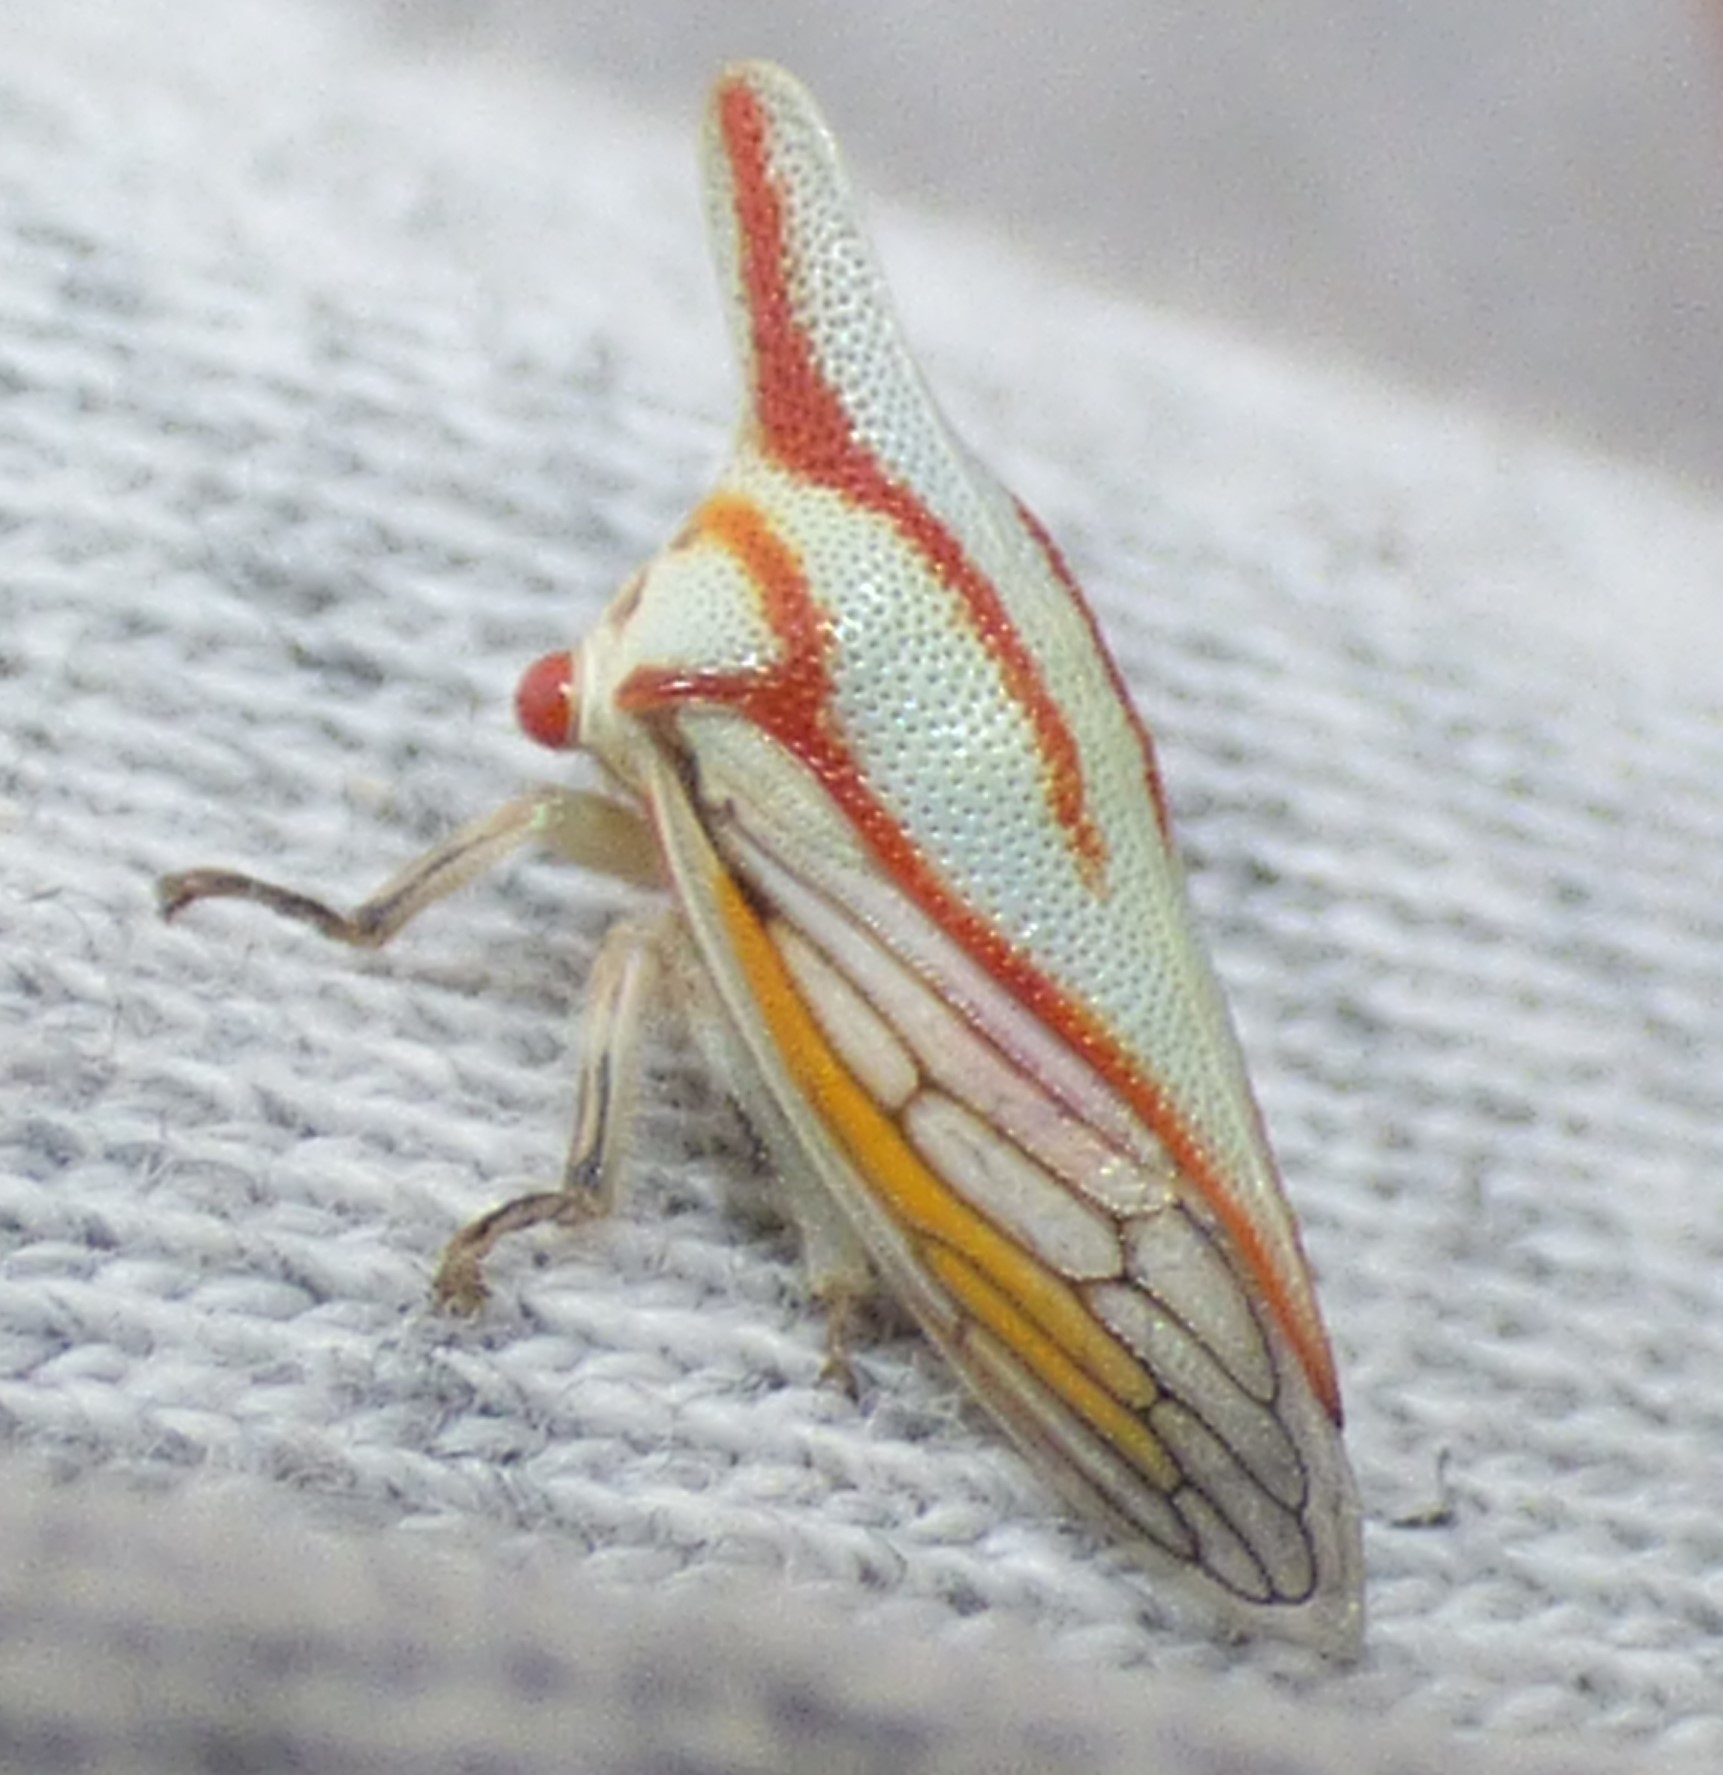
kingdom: Animalia
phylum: Arthropoda
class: Insecta
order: Hemiptera
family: Membracidae
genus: Platycotis
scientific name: Platycotis vittatus
